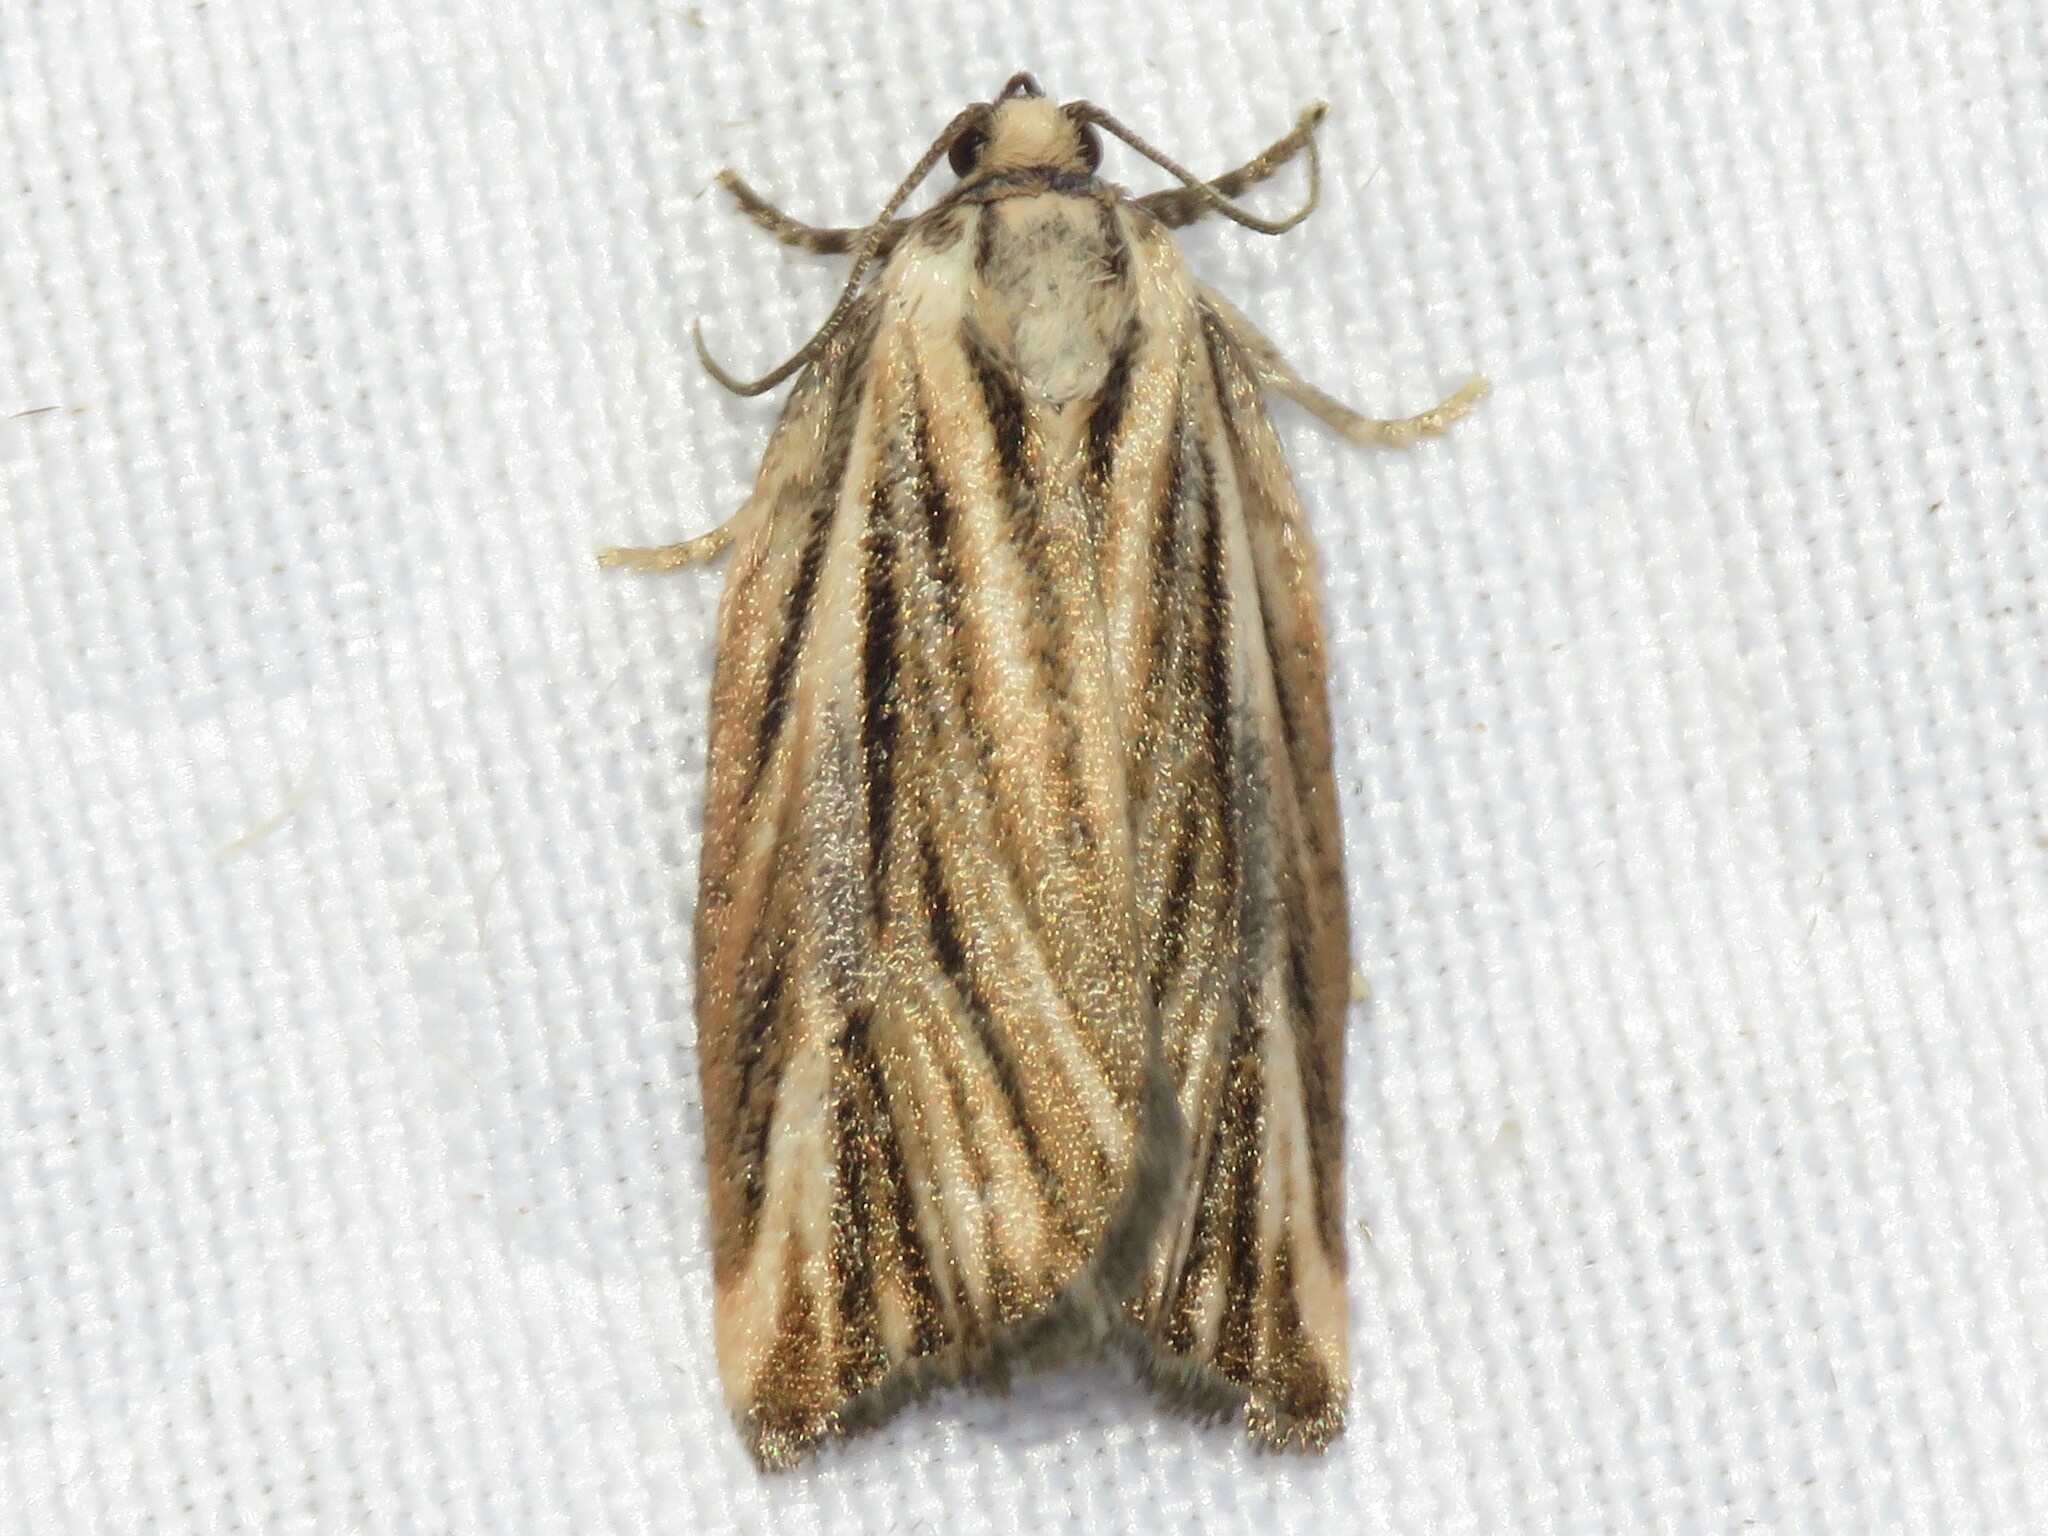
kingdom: Animalia
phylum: Arthropoda
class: Insecta
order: Lepidoptera
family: Tortricidae
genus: Archips
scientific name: Archips strianus
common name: Striated tortrix moth
